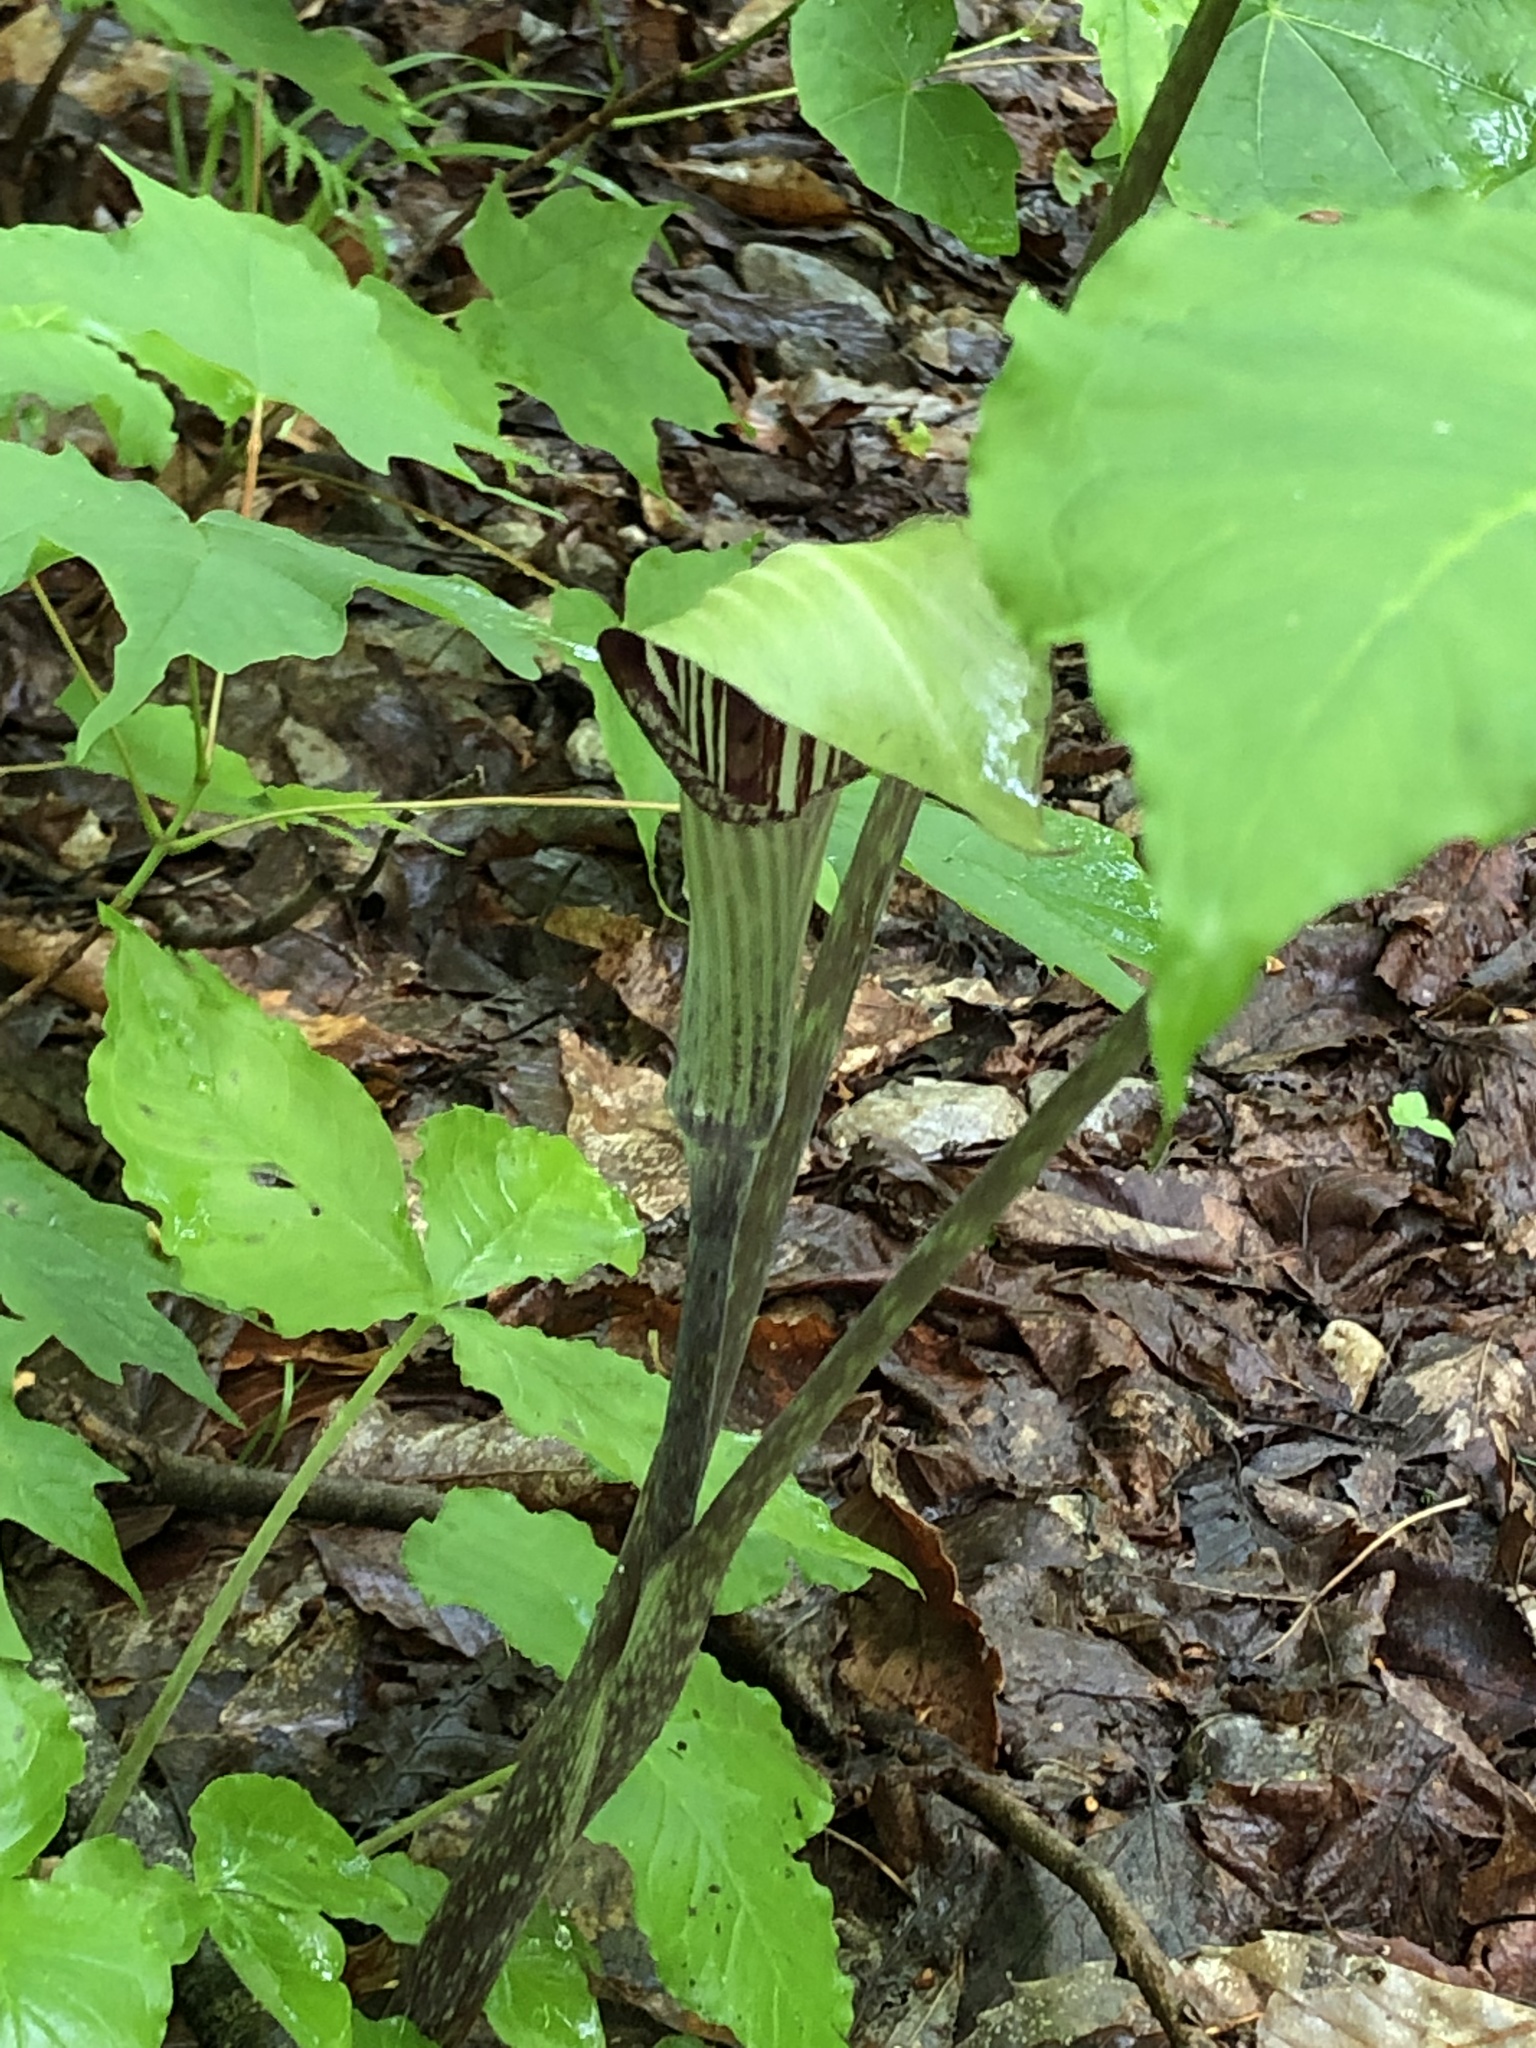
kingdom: Plantae
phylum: Tracheophyta
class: Liliopsida
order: Alismatales
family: Araceae
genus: Arisaema
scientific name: Arisaema triphyllum
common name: Jack-in-the-pulpit
